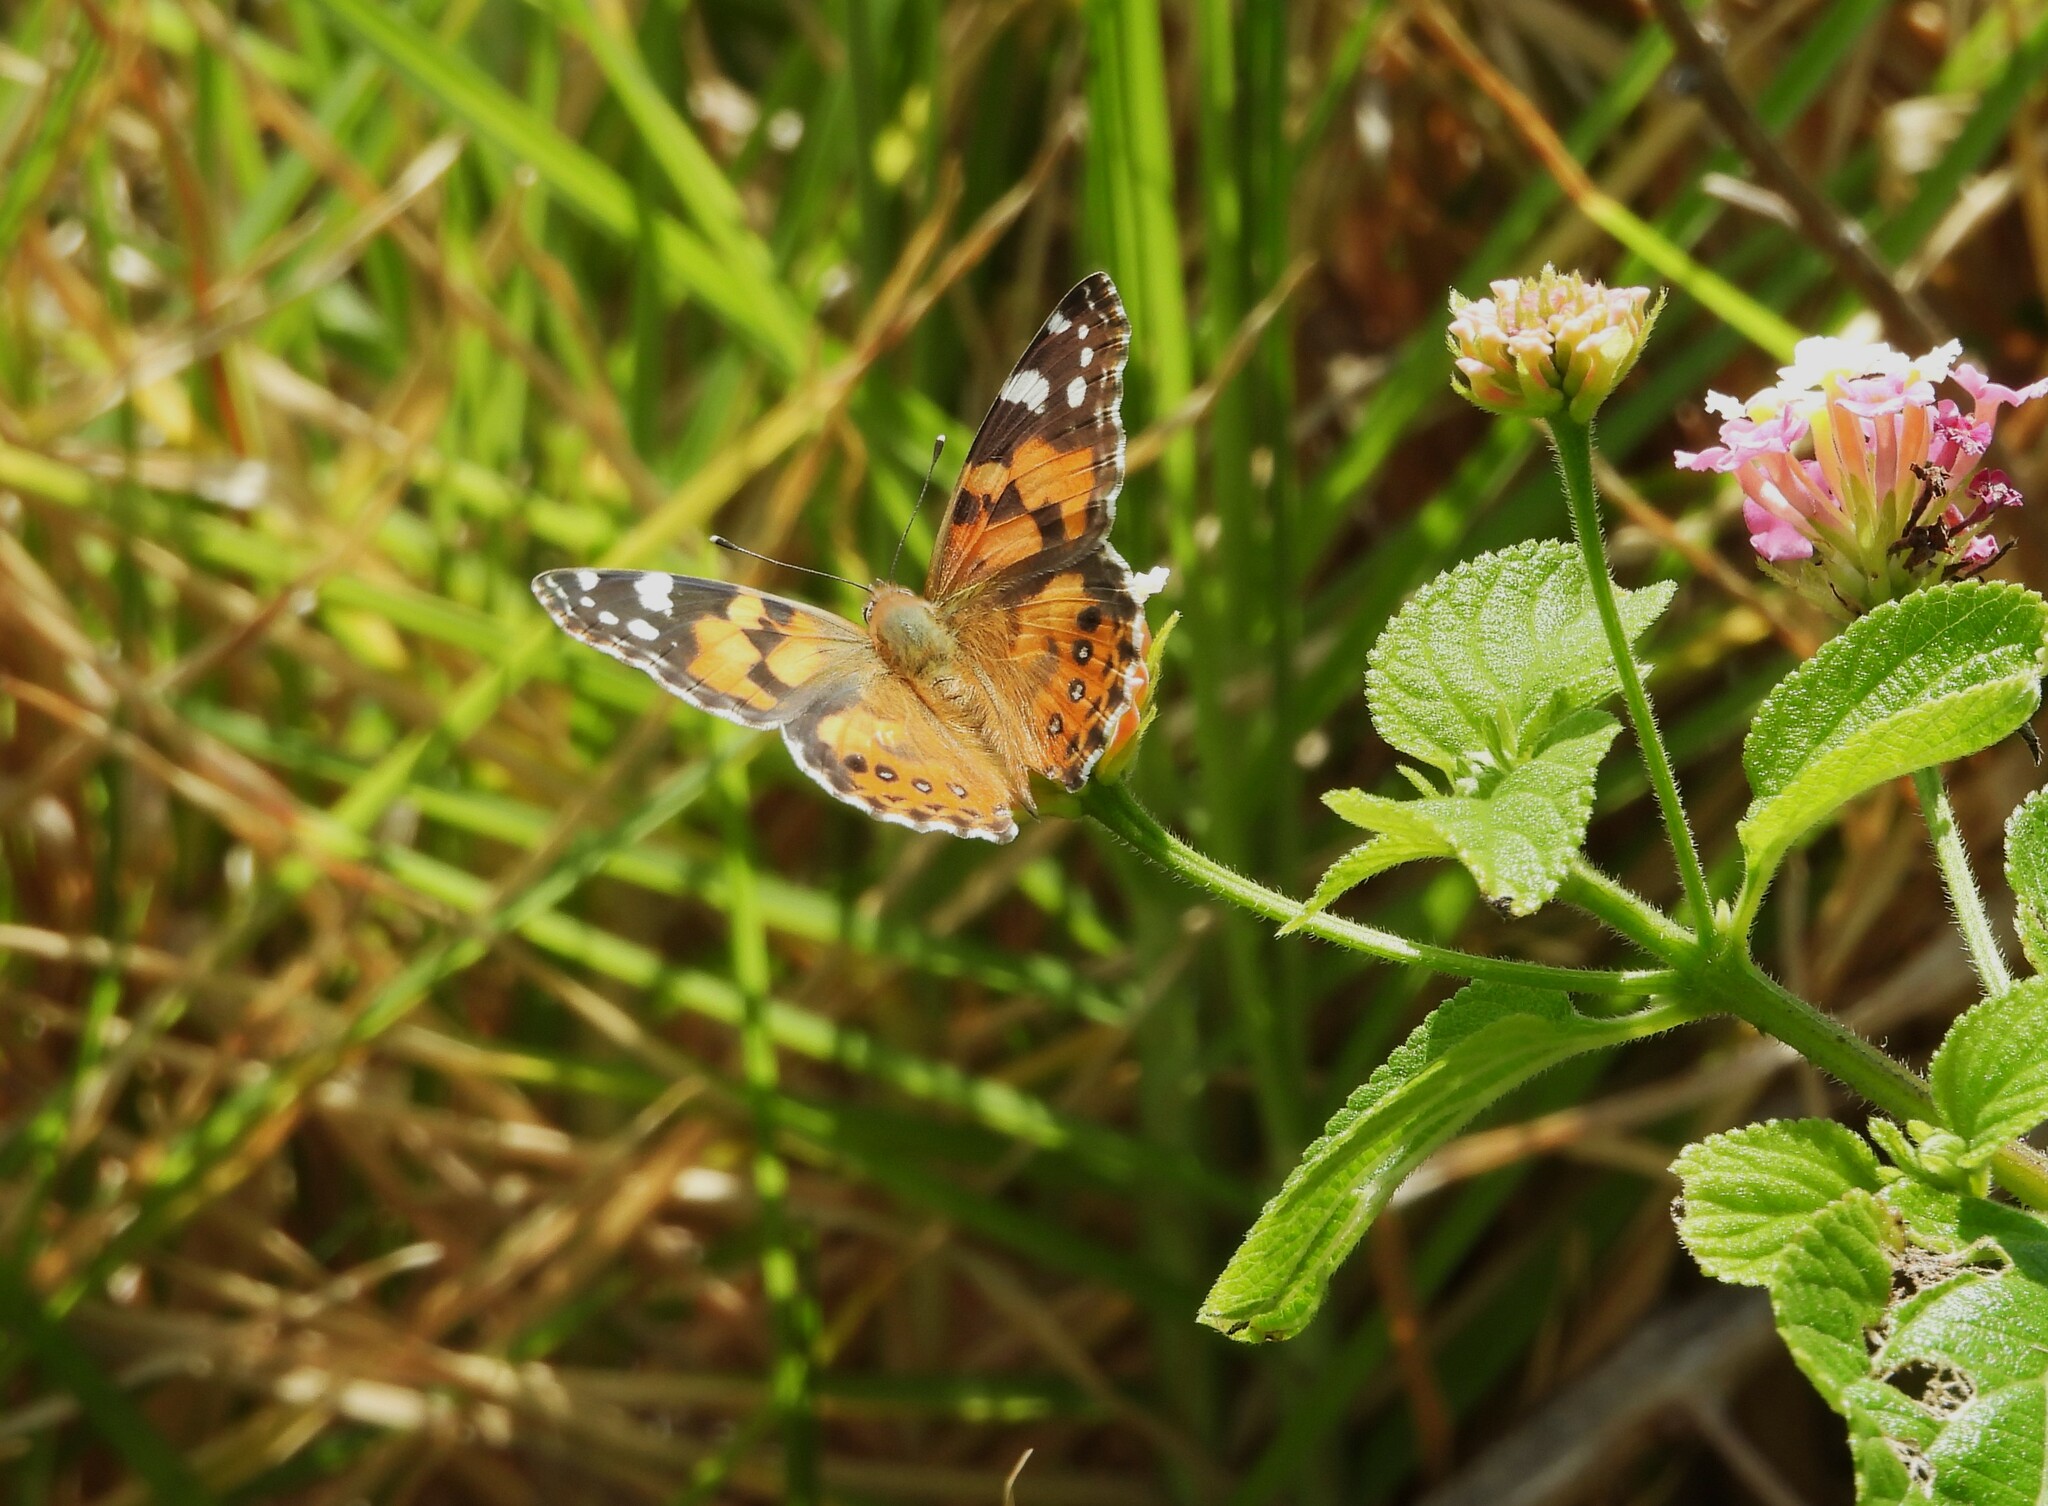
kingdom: Animalia
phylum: Arthropoda
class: Insecta
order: Lepidoptera
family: Nymphalidae
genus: Vanessa
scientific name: Vanessa kershawi
